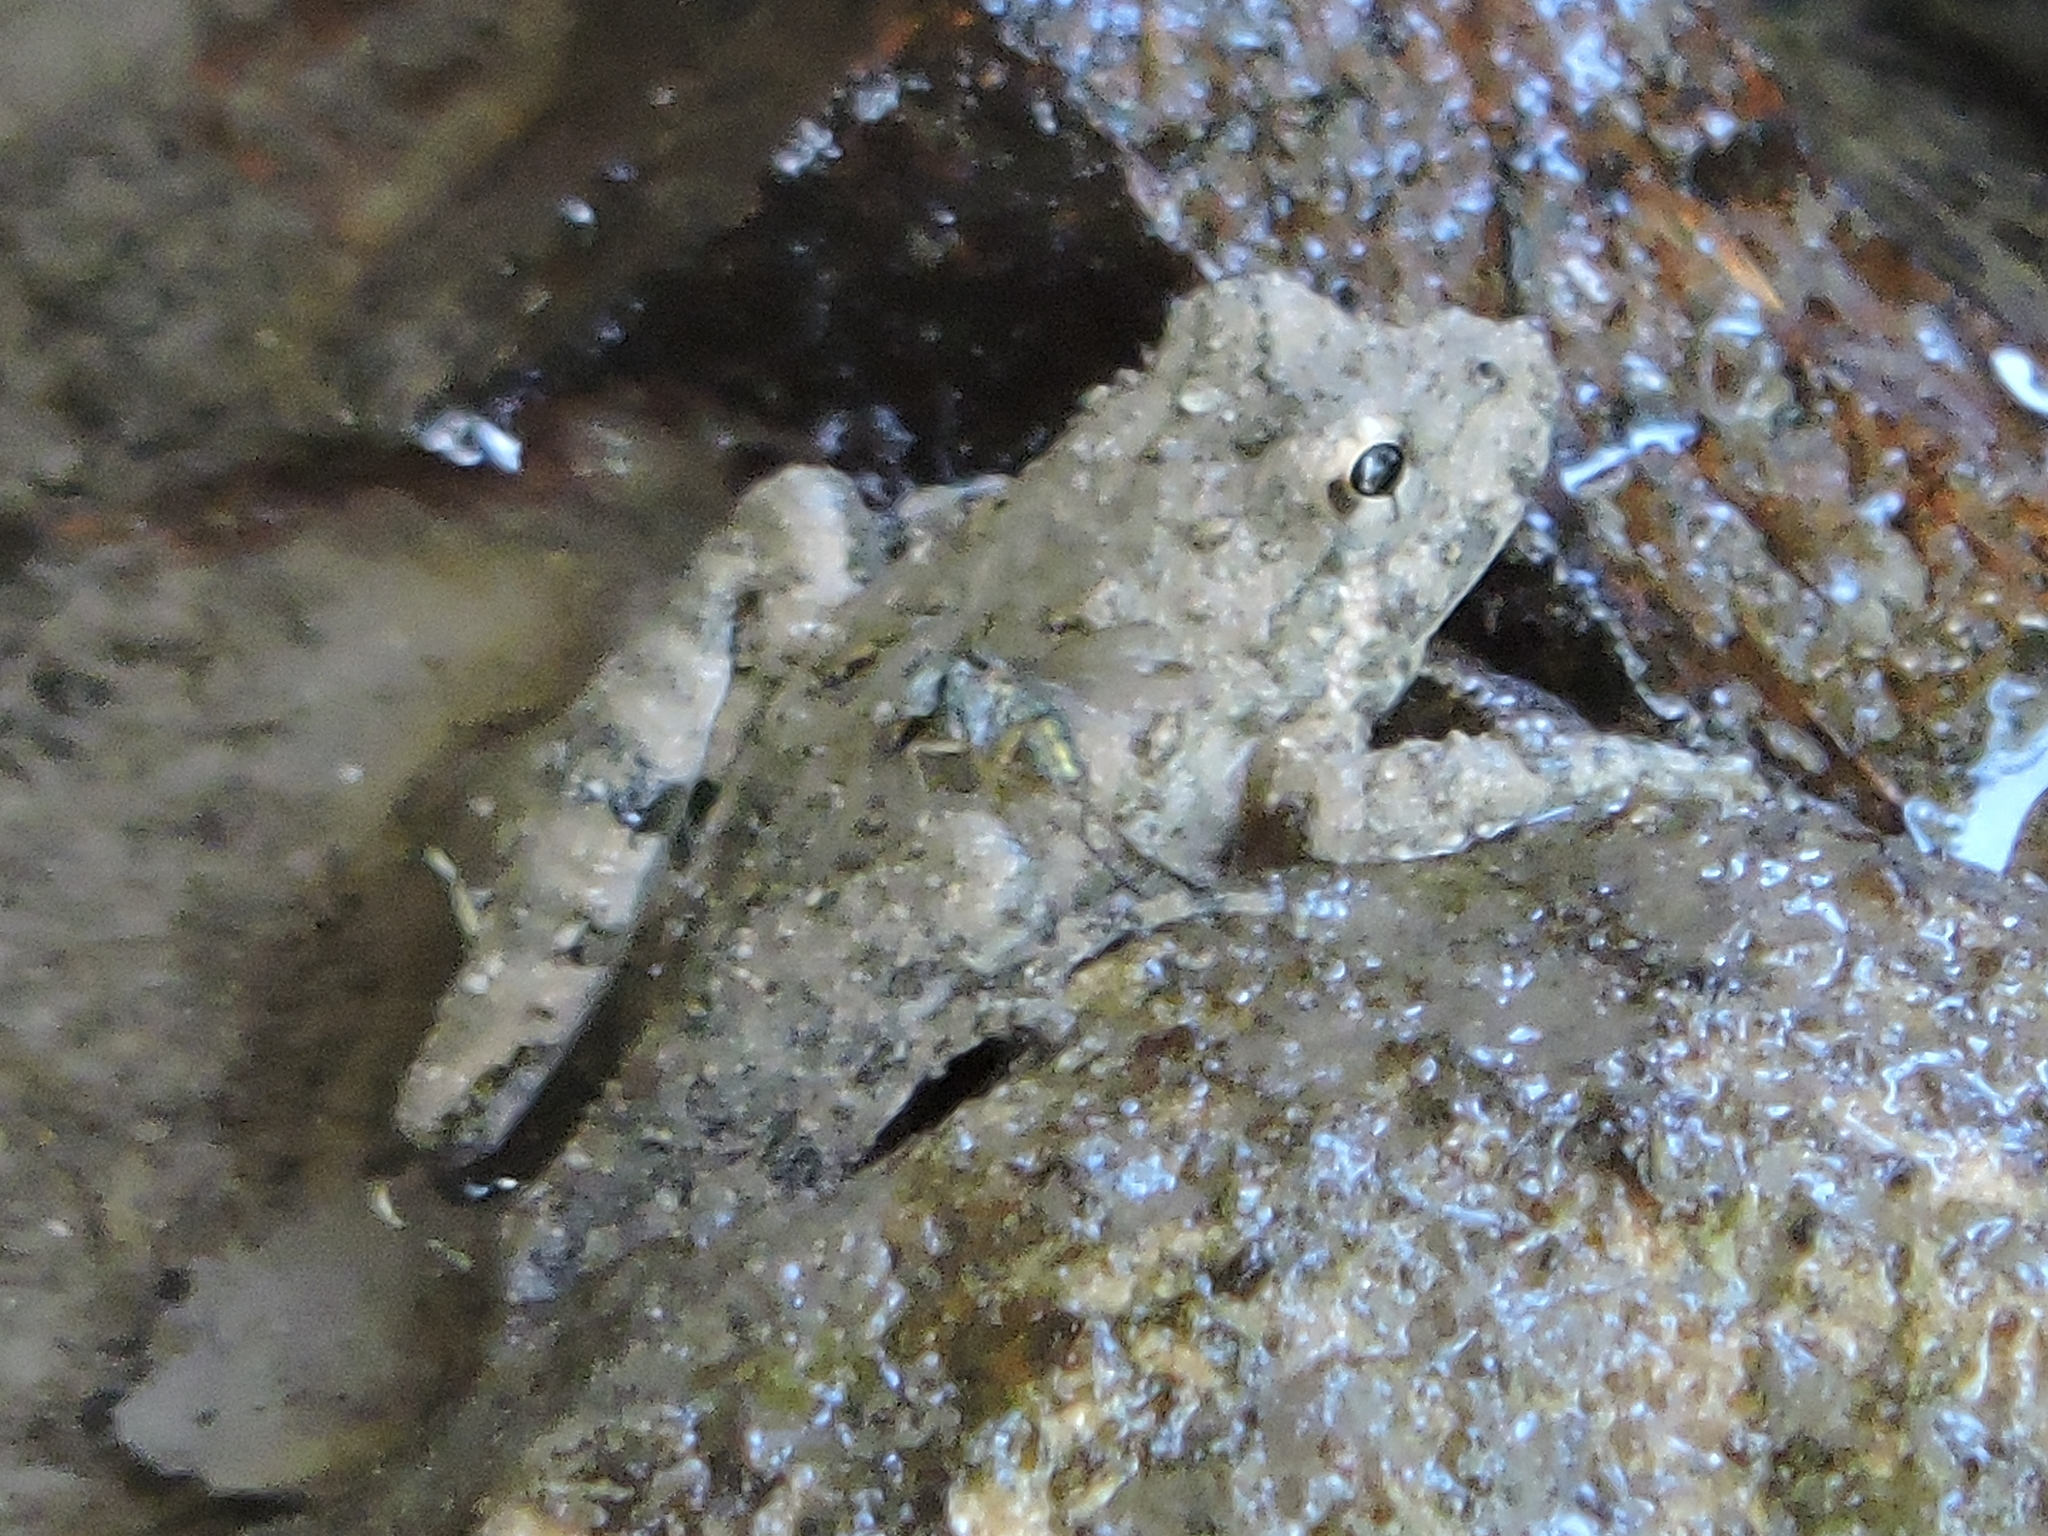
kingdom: Animalia
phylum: Chordata
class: Amphibia
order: Anura
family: Hylidae
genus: Acris
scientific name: Acris blanchardi
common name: Blanchard's cricket frog
